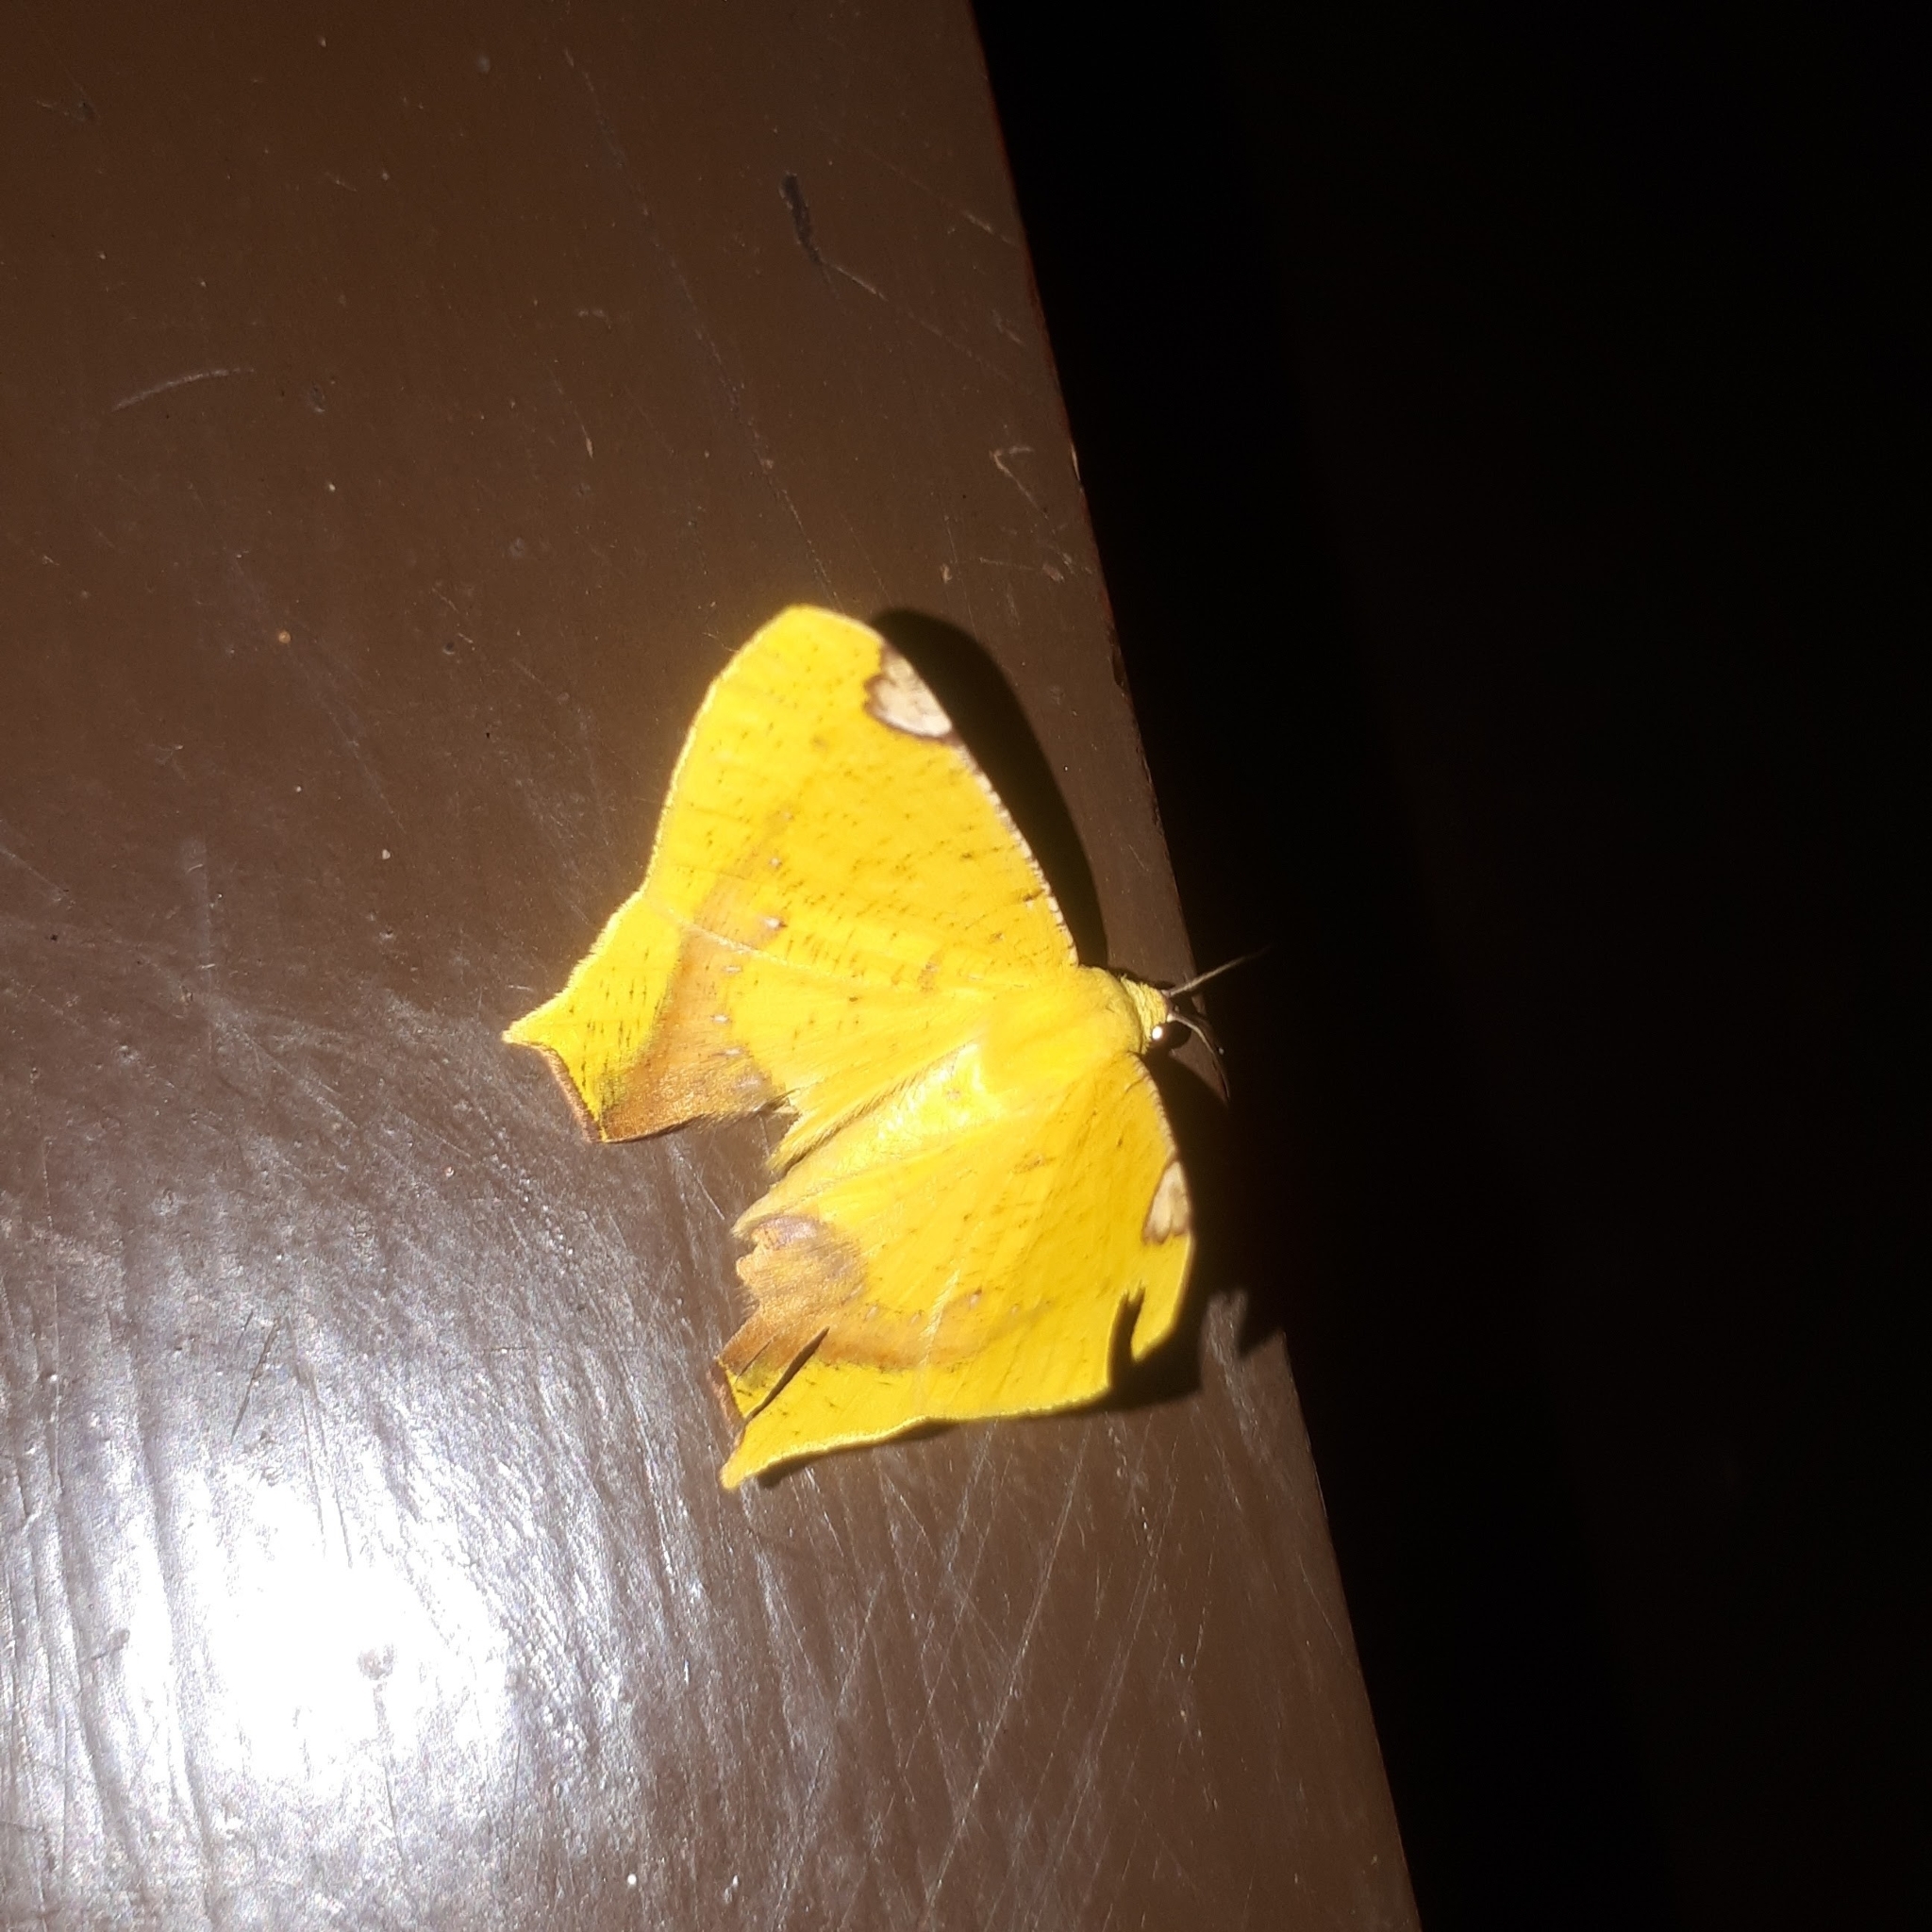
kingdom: Animalia
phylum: Arthropoda
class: Insecta
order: Lepidoptera
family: Geometridae
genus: Nepheloleuca
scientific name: Nepheloleuca politia
